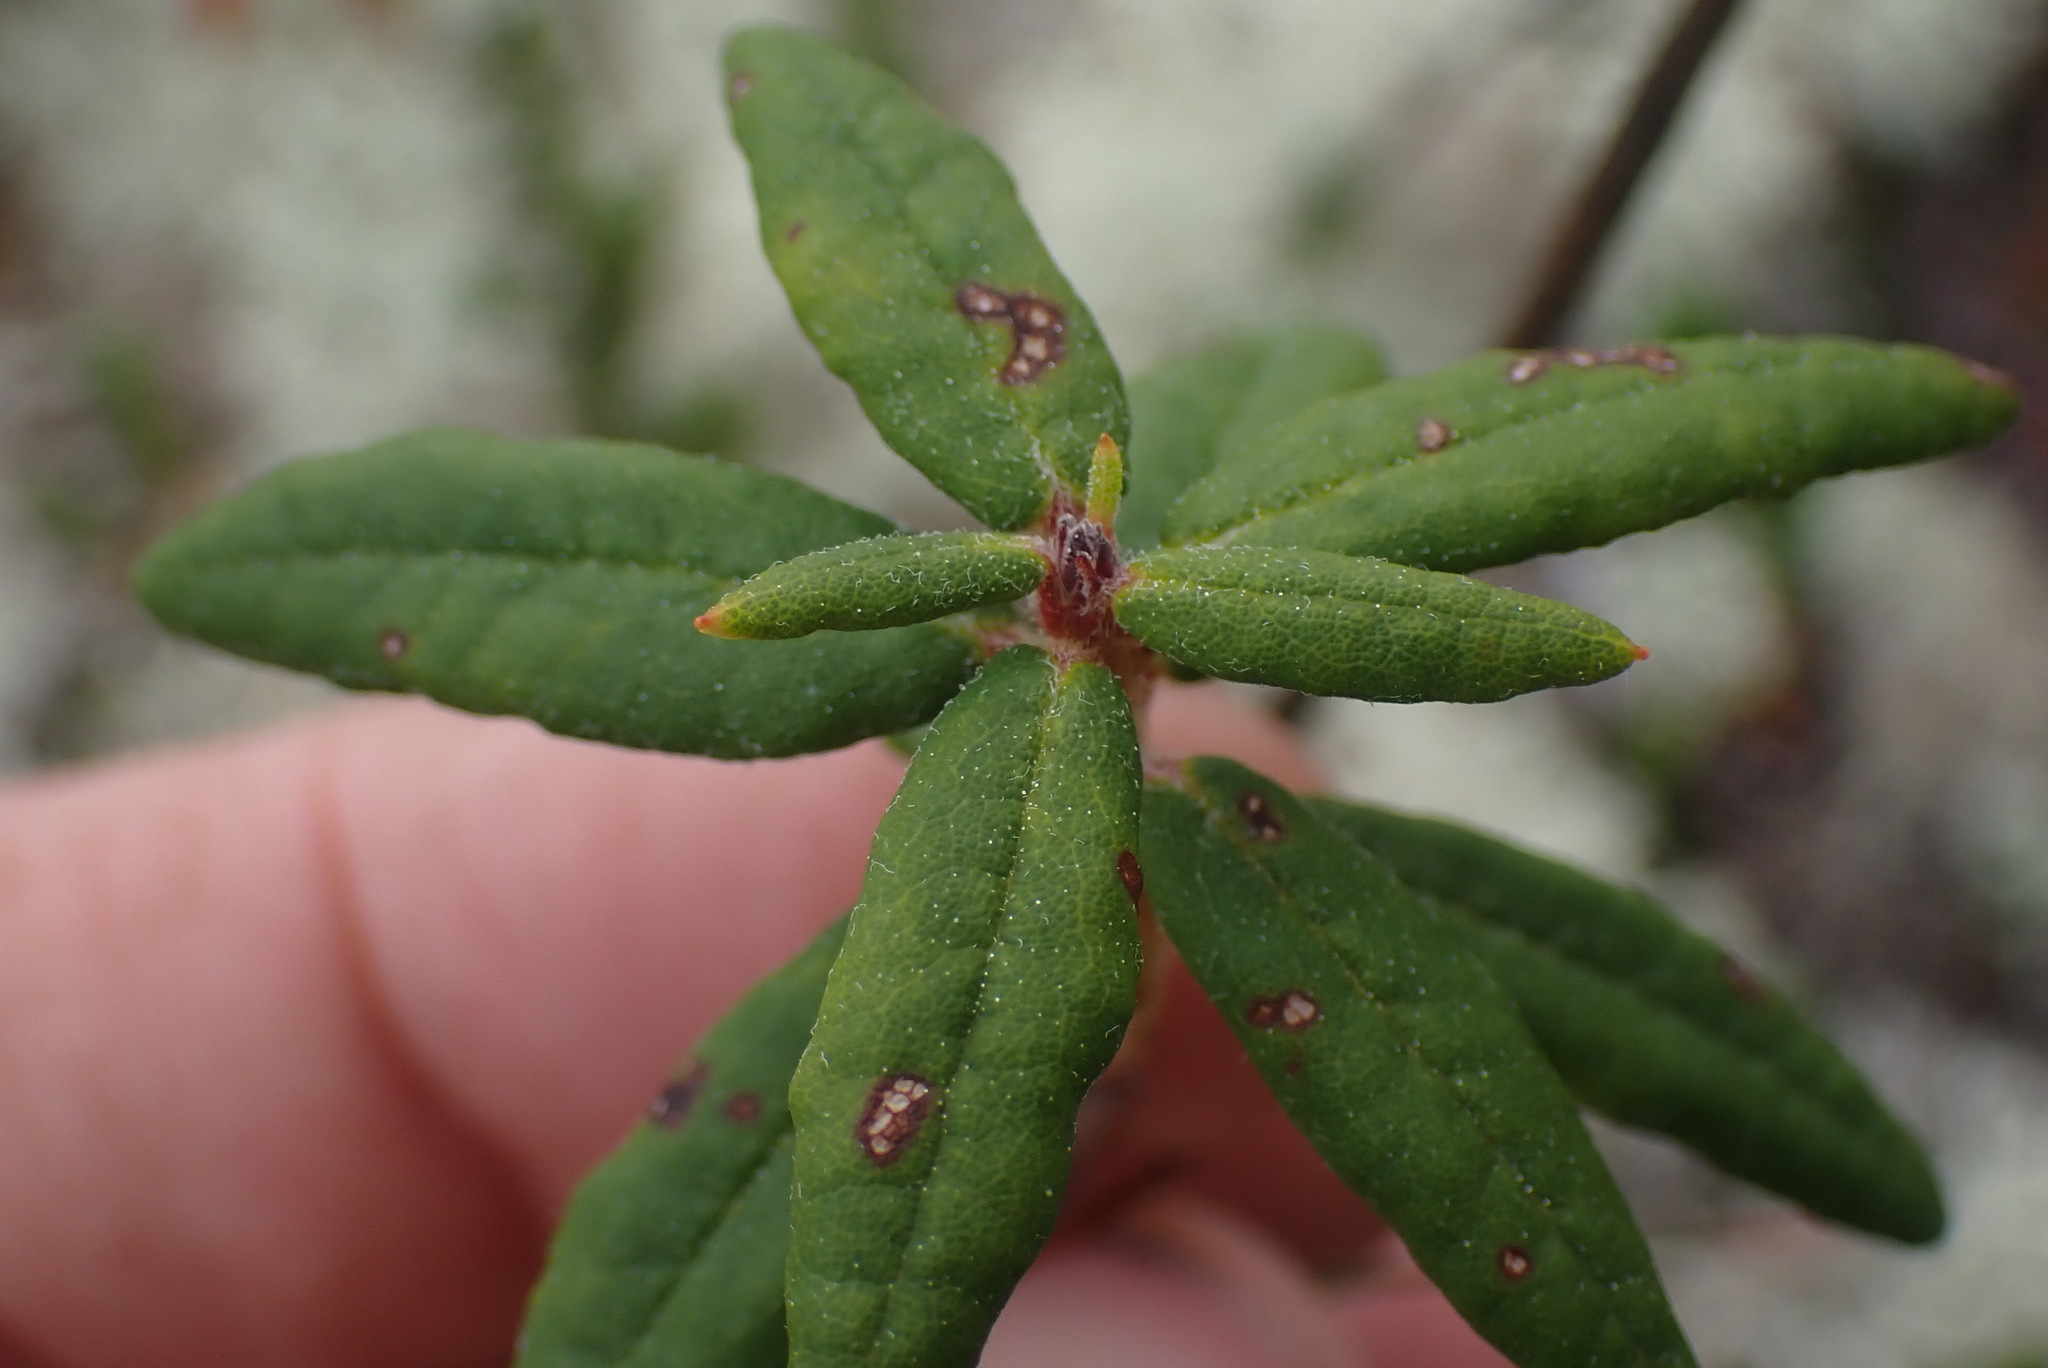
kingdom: Plantae
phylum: Tracheophyta
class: Magnoliopsida
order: Ericales
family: Ericaceae
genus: Rhododendron
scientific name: Rhododendron groenlandicum
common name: Bog labrador tea
